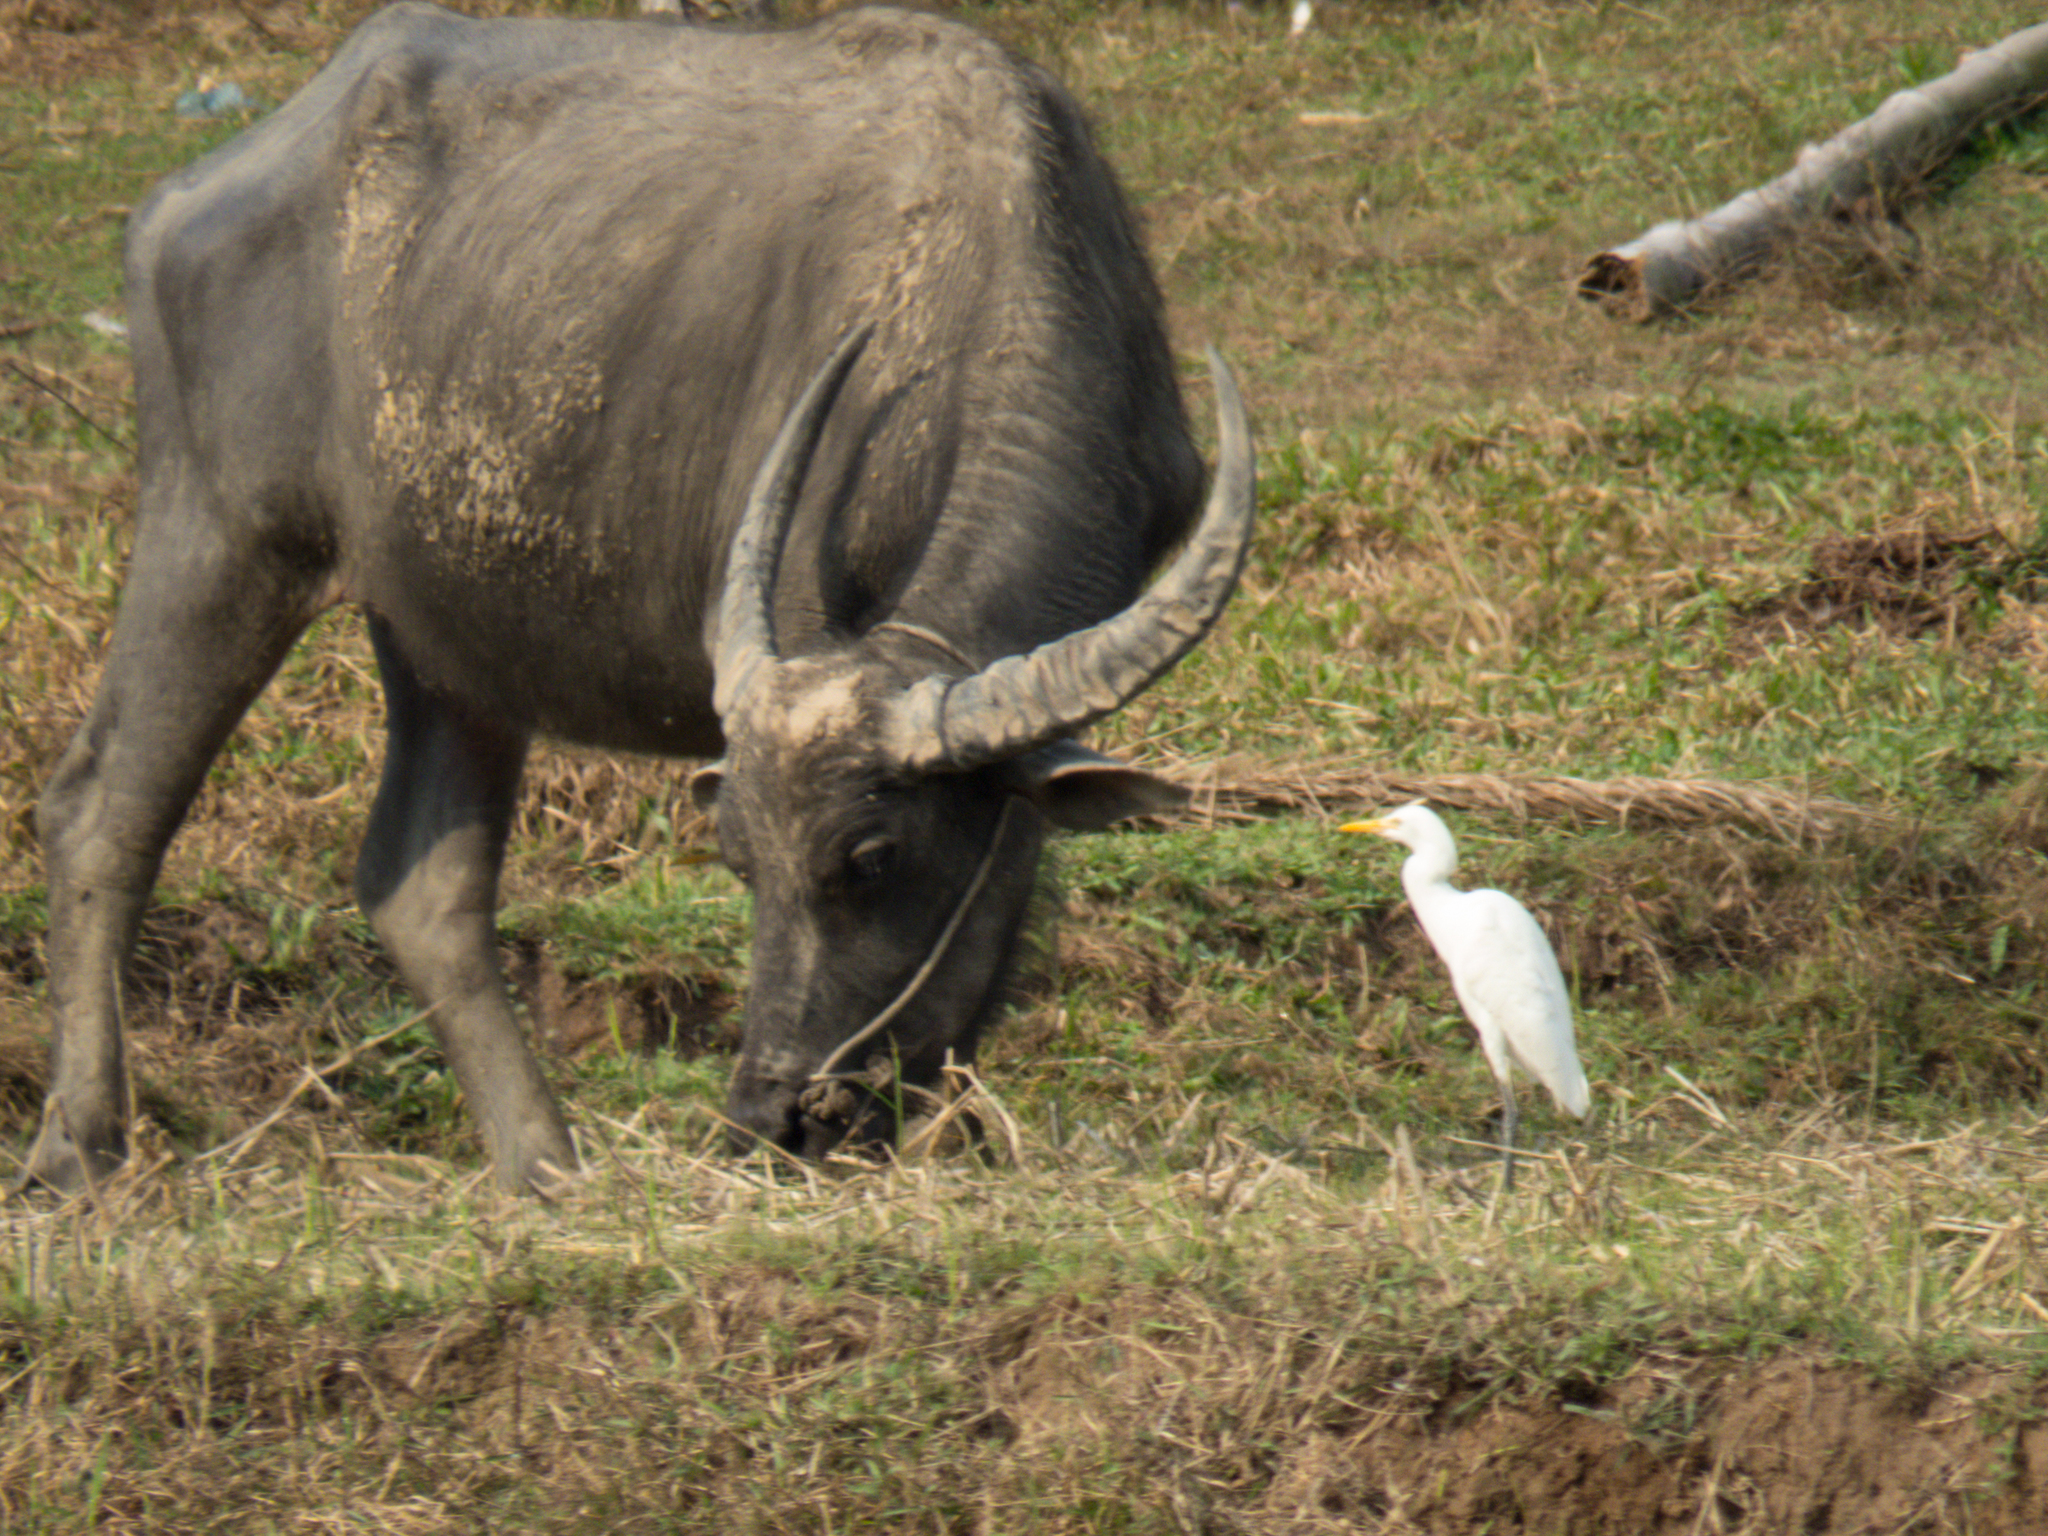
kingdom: Animalia
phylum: Chordata
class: Aves
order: Pelecaniformes
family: Ardeidae
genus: Bubulcus
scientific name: Bubulcus coromandus
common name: Eastern cattle egret
